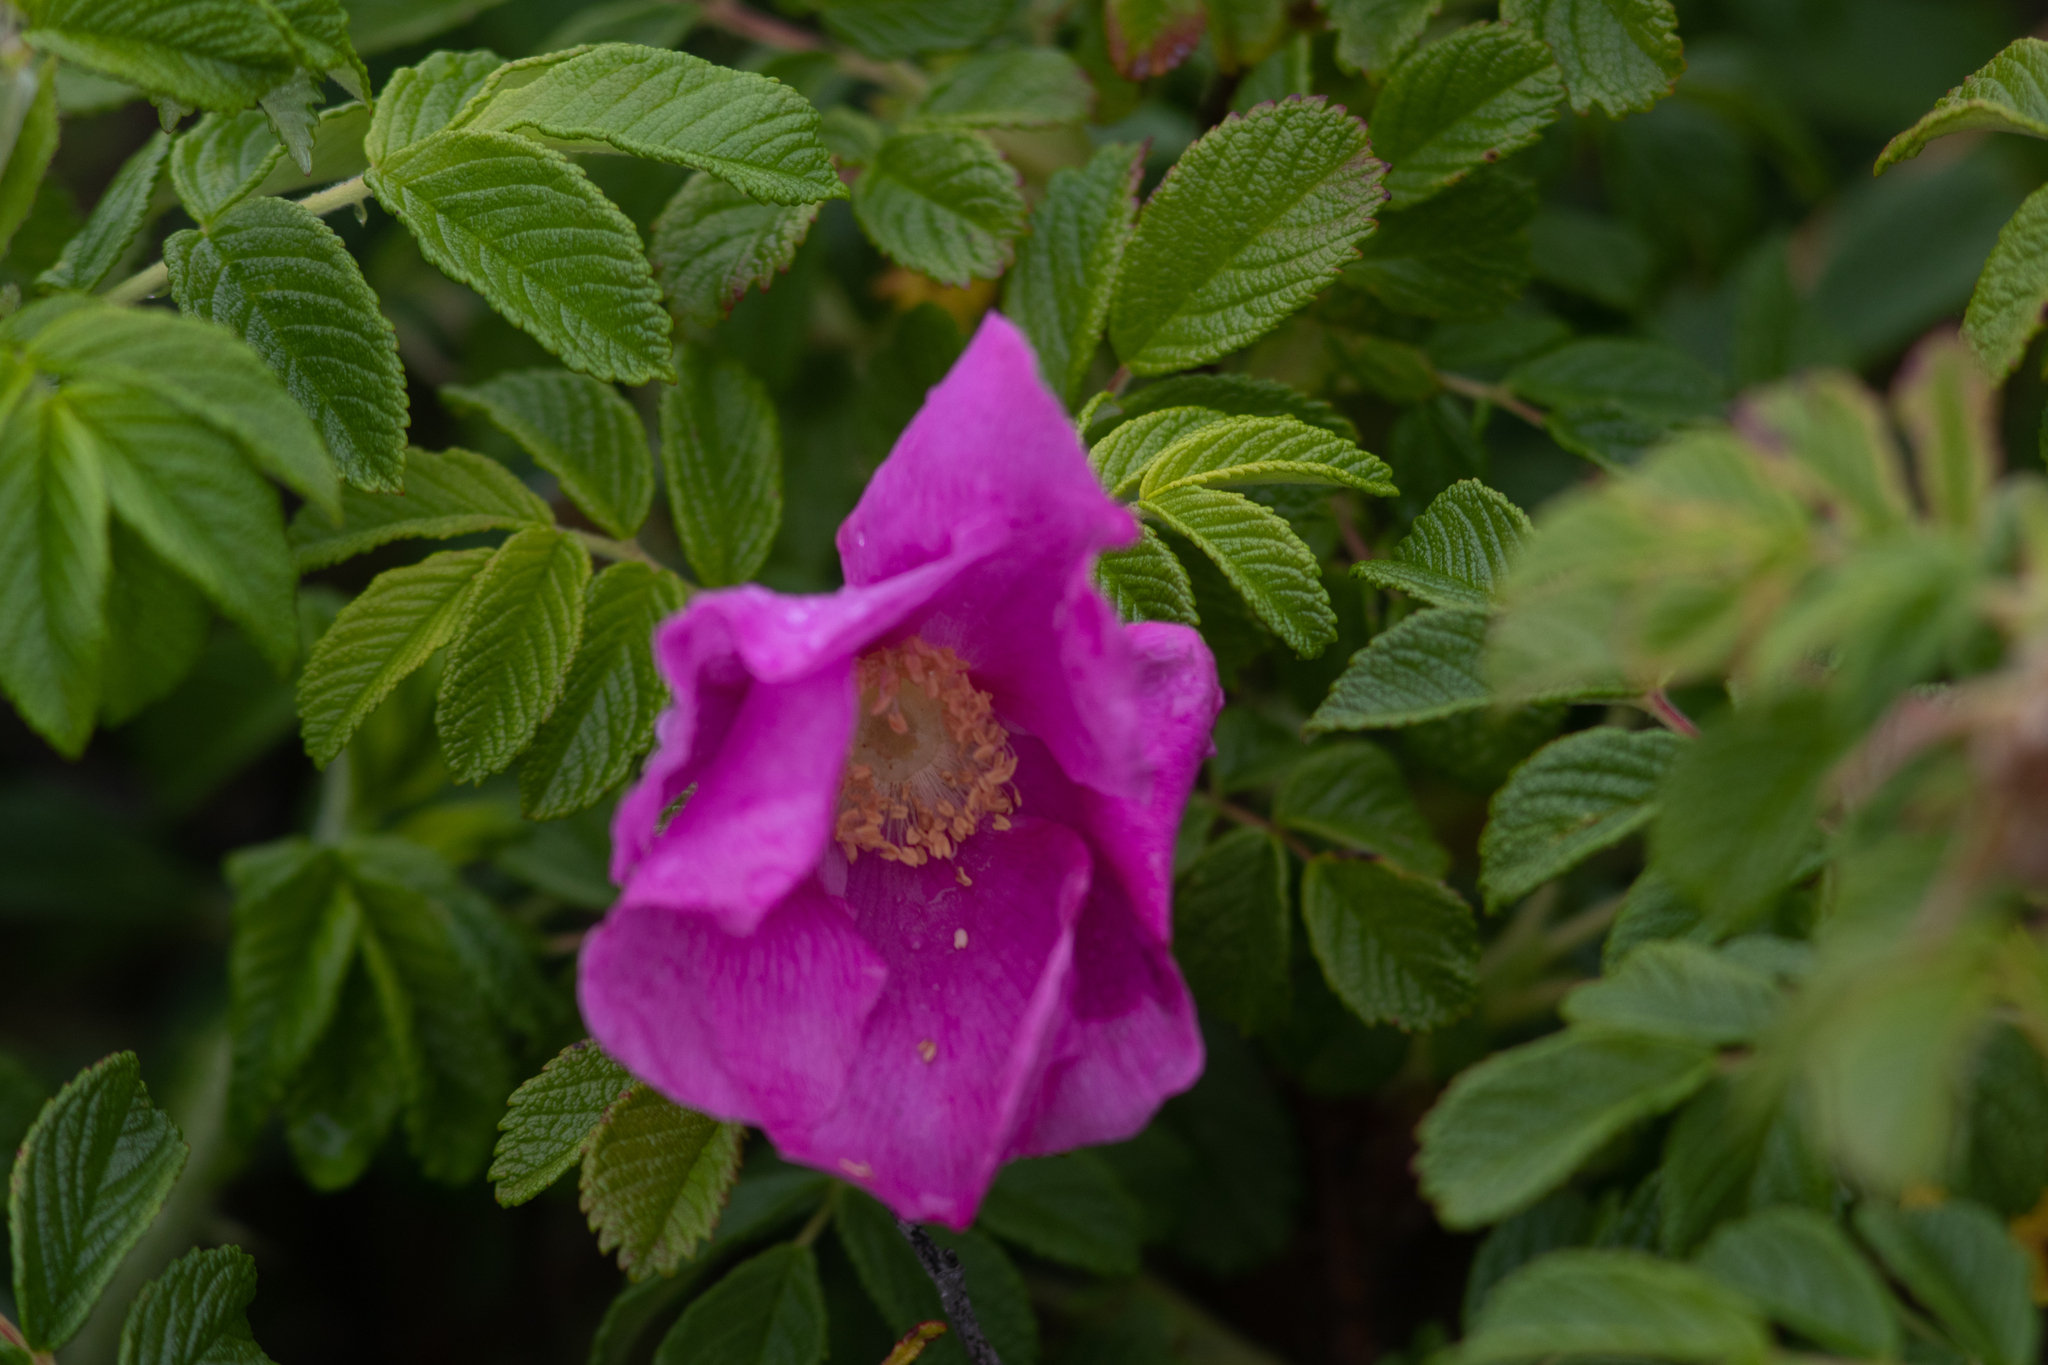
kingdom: Plantae
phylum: Tracheophyta
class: Magnoliopsida
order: Rosales
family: Rosaceae
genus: Rosa
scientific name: Rosa rugosa
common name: Japanese rose
